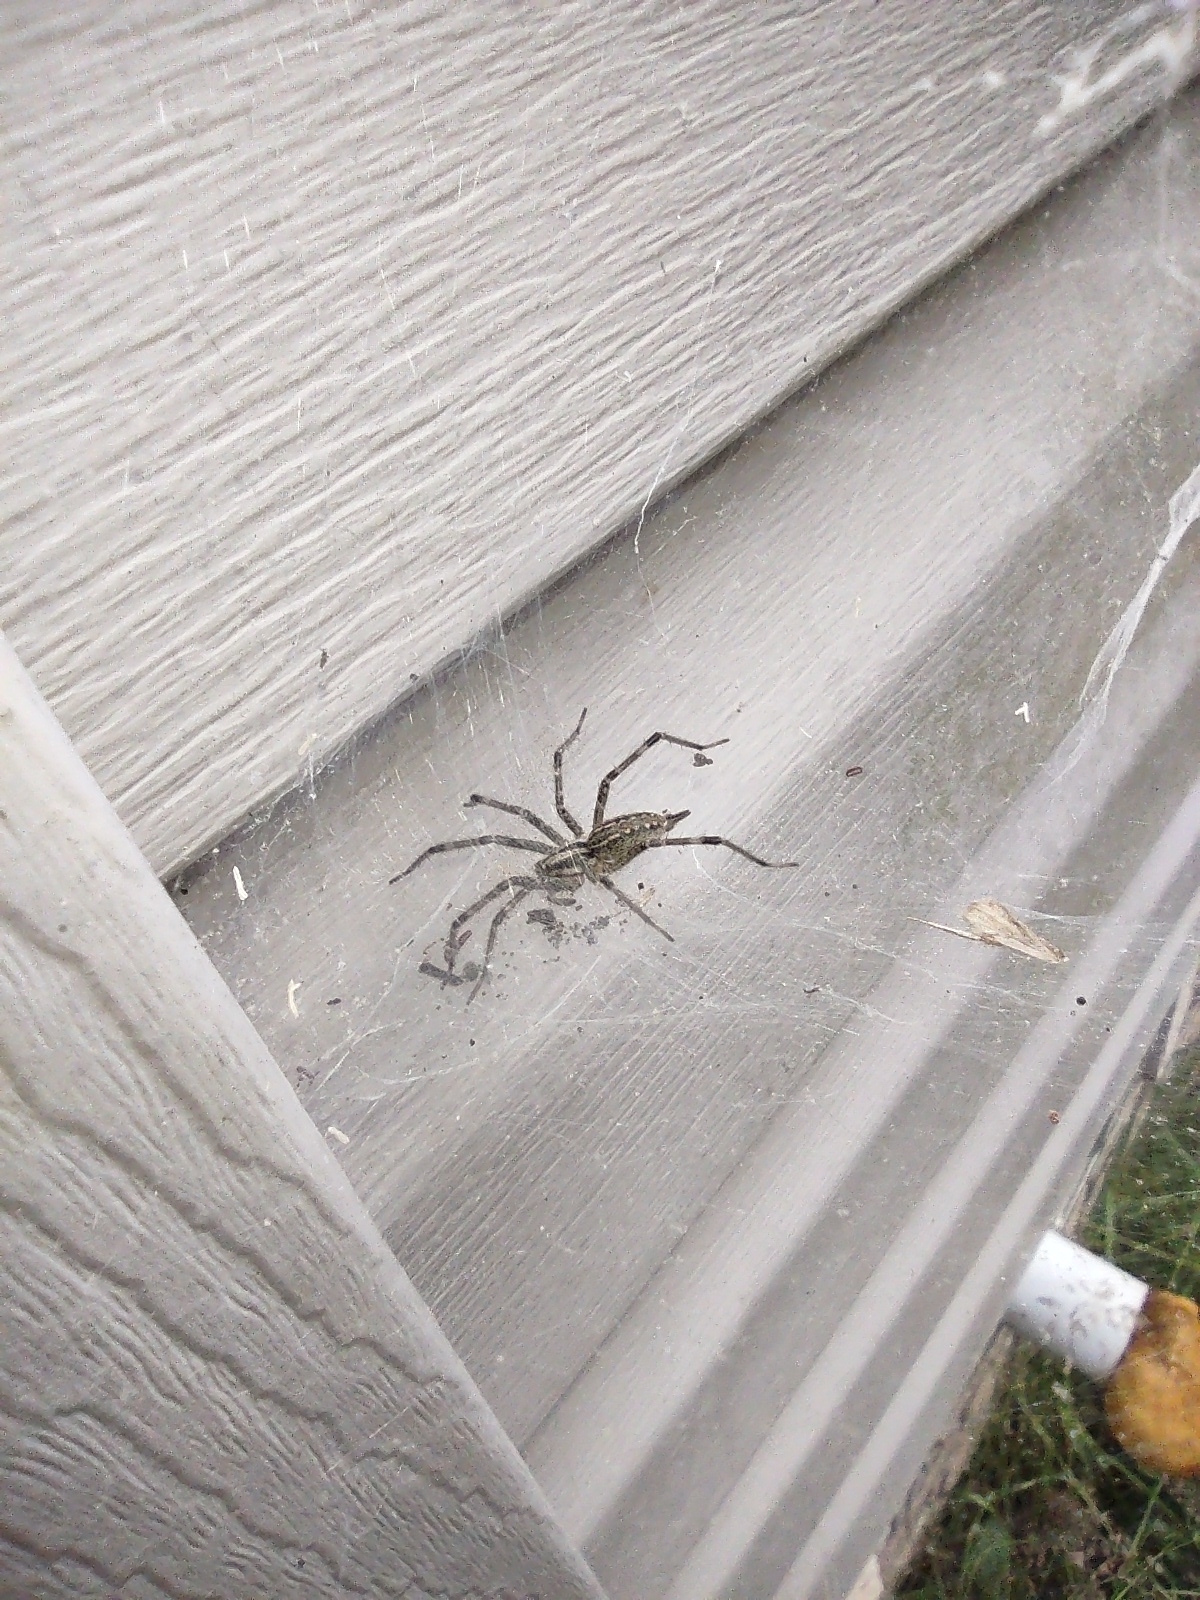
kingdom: Animalia
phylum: Arthropoda
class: Arachnida
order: Araneae
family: Agelenidae
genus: Agelenopsis
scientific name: Agelenopsis
